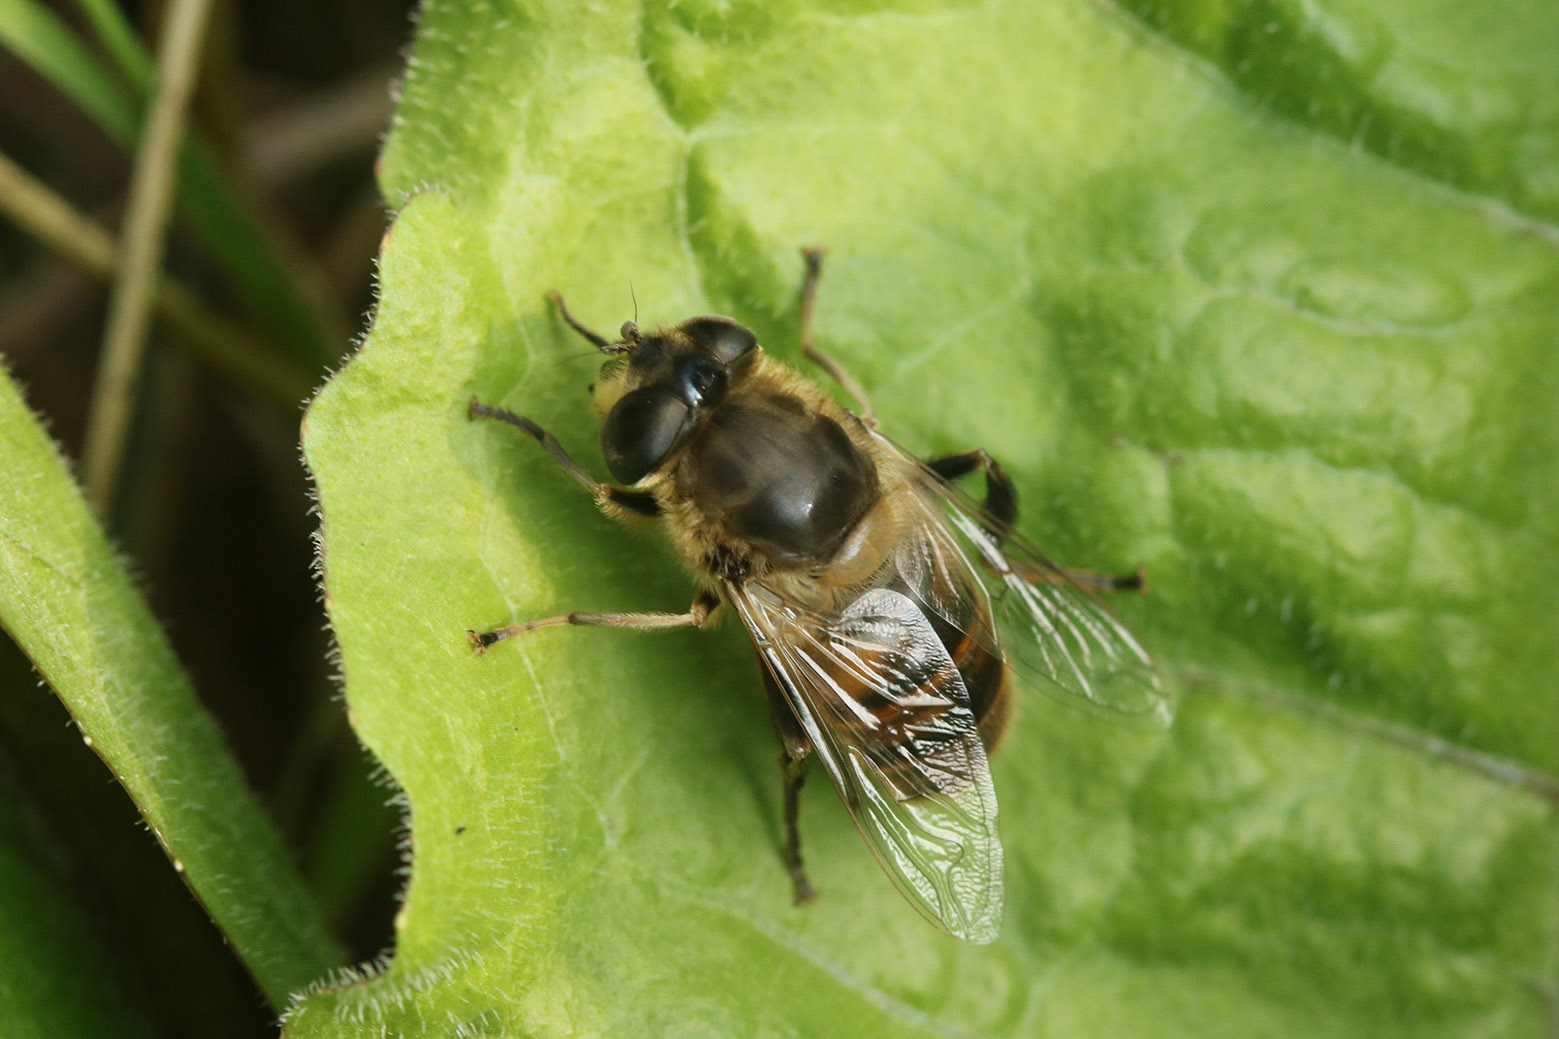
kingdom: Animalia
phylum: Arthropoda
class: Insecta
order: Diptera
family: Syrphidae
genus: Eristalis
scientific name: Eristalis tenax
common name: Drone fly
